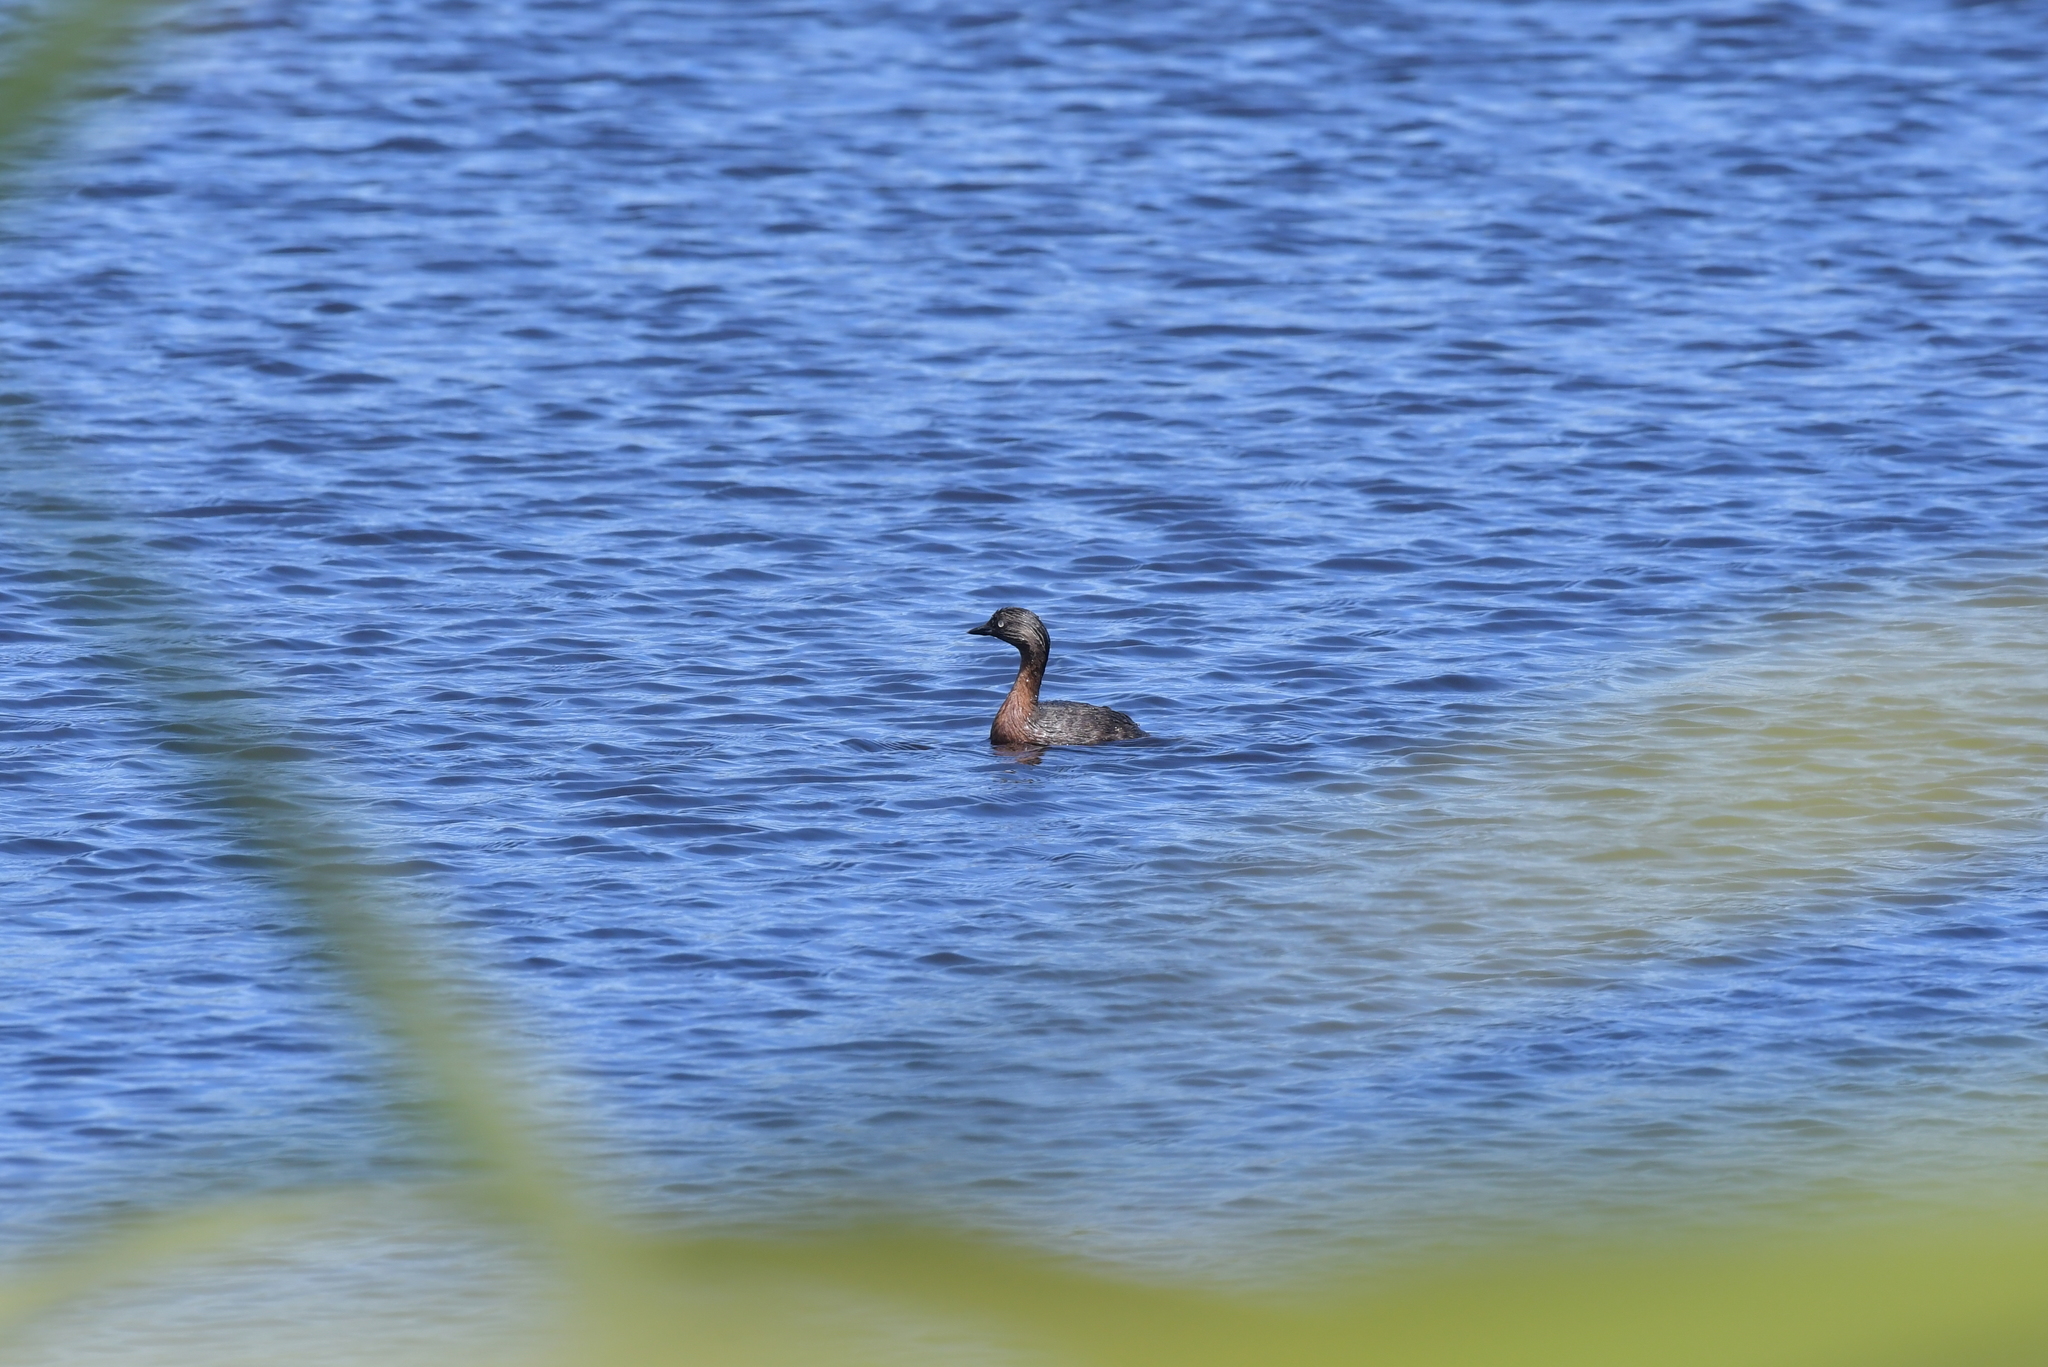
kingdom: Animalia
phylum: Chordata
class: Aves
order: Podicipediformes
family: Podicipedidae
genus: Poliocephalus
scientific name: Poliocephalus rufopectus
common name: New zealand grebe
